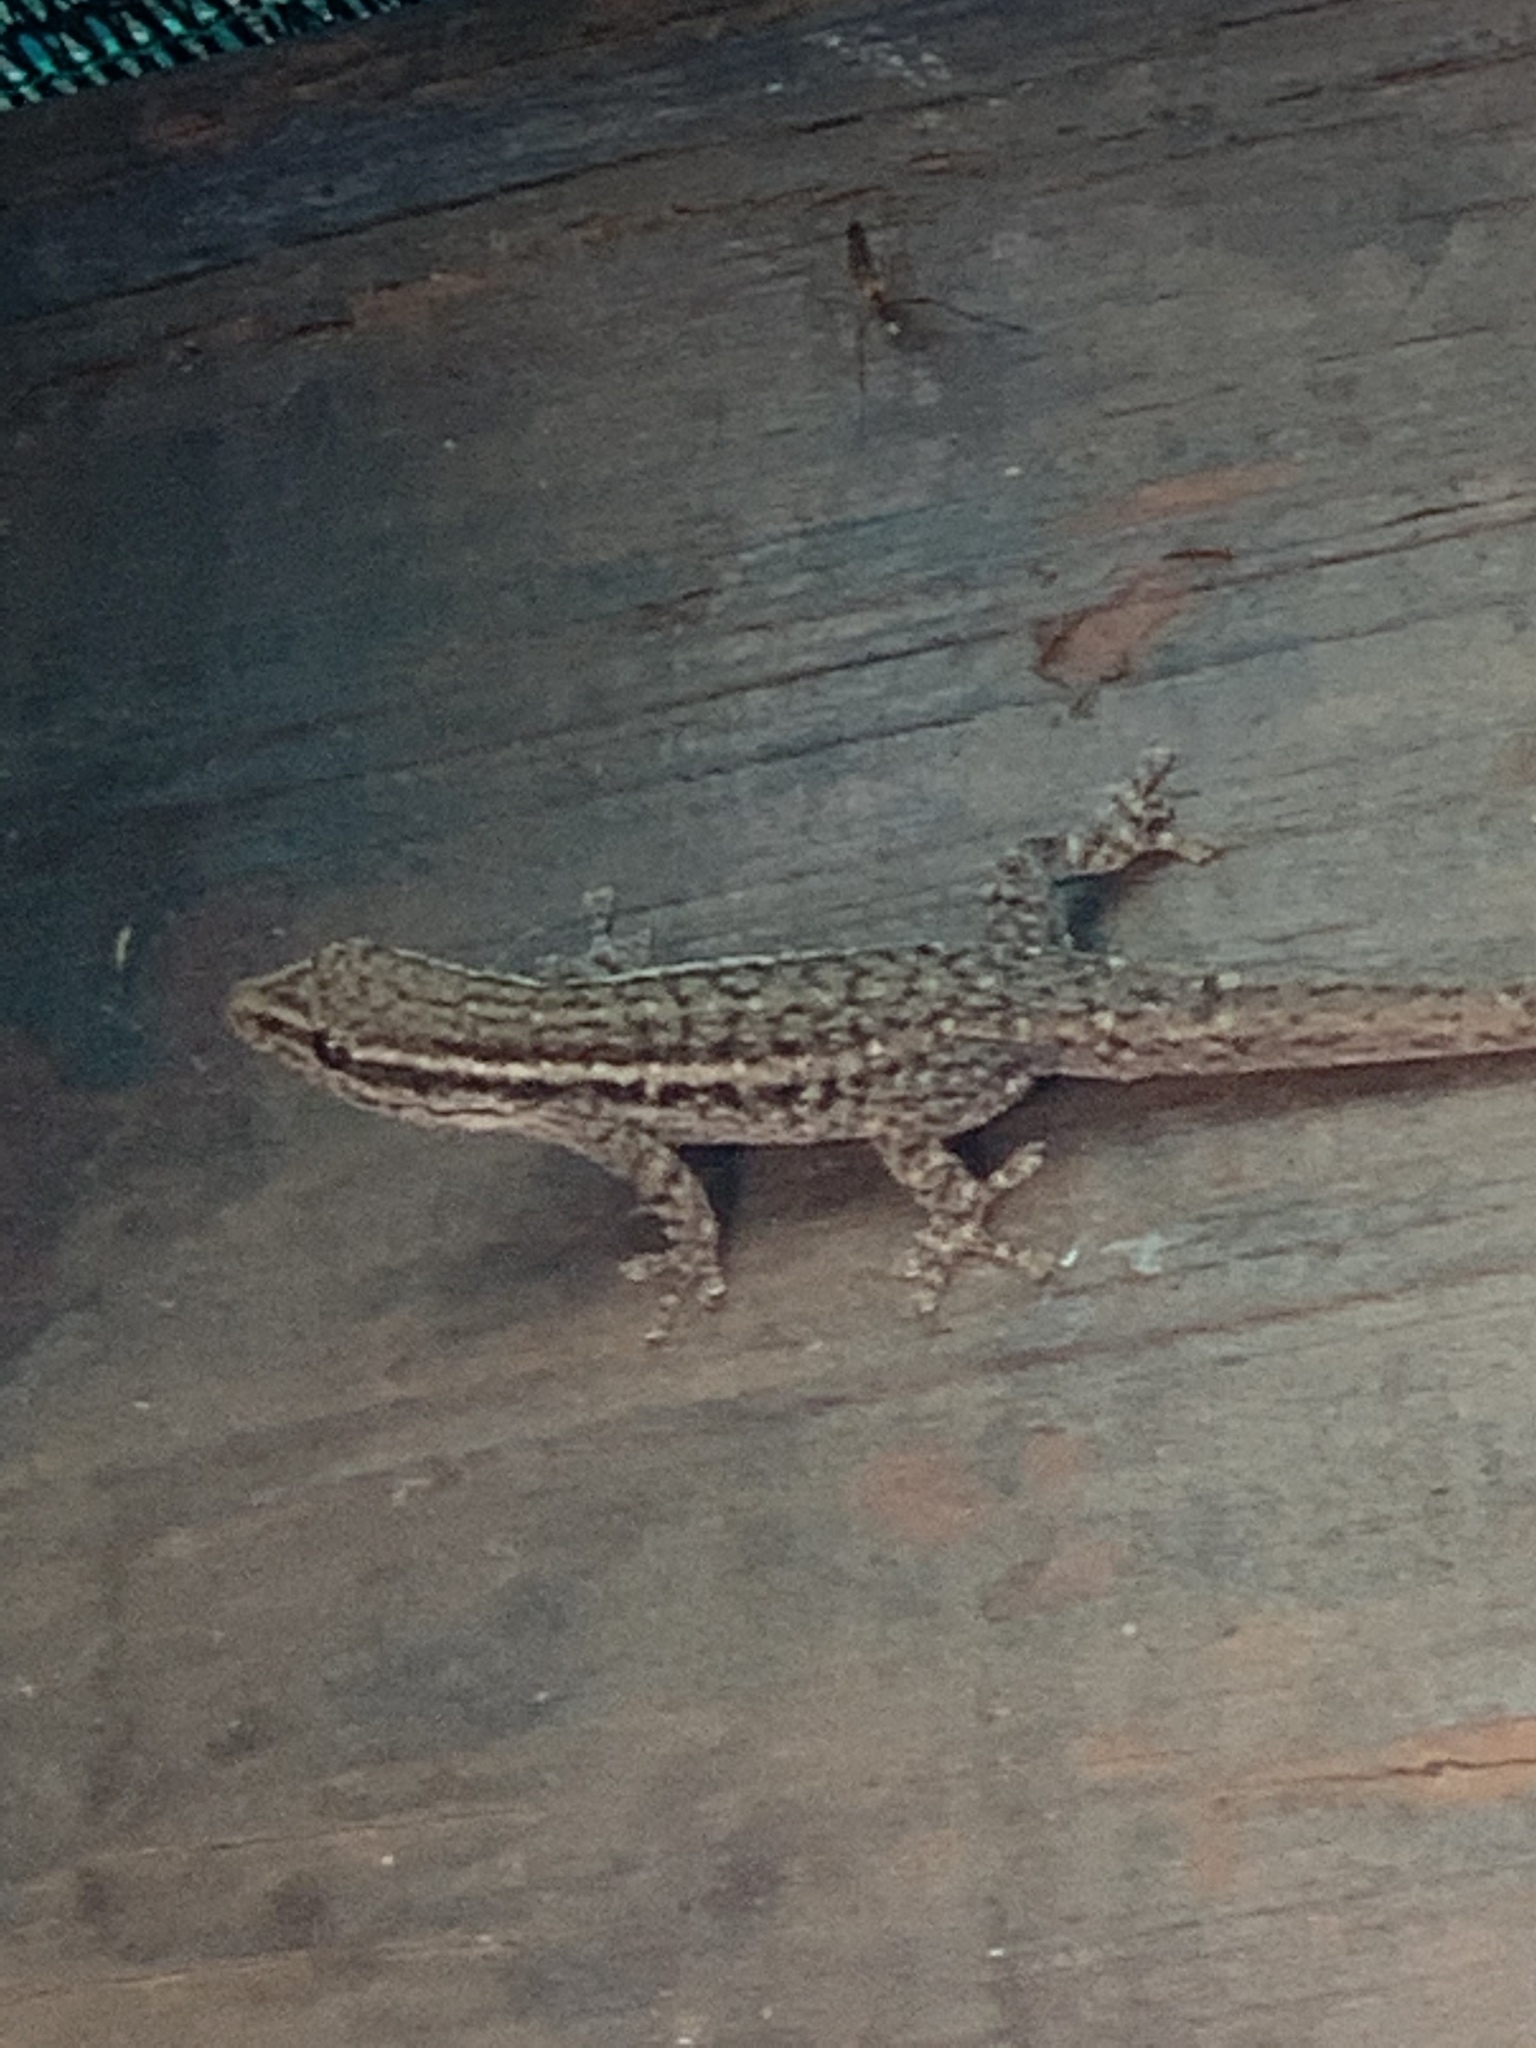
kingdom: Animalia
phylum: Chordata
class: Squamata
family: Gekkonidae
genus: Lygodactylus
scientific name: Lygodactylus capensis
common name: Cape dwarf gecko
